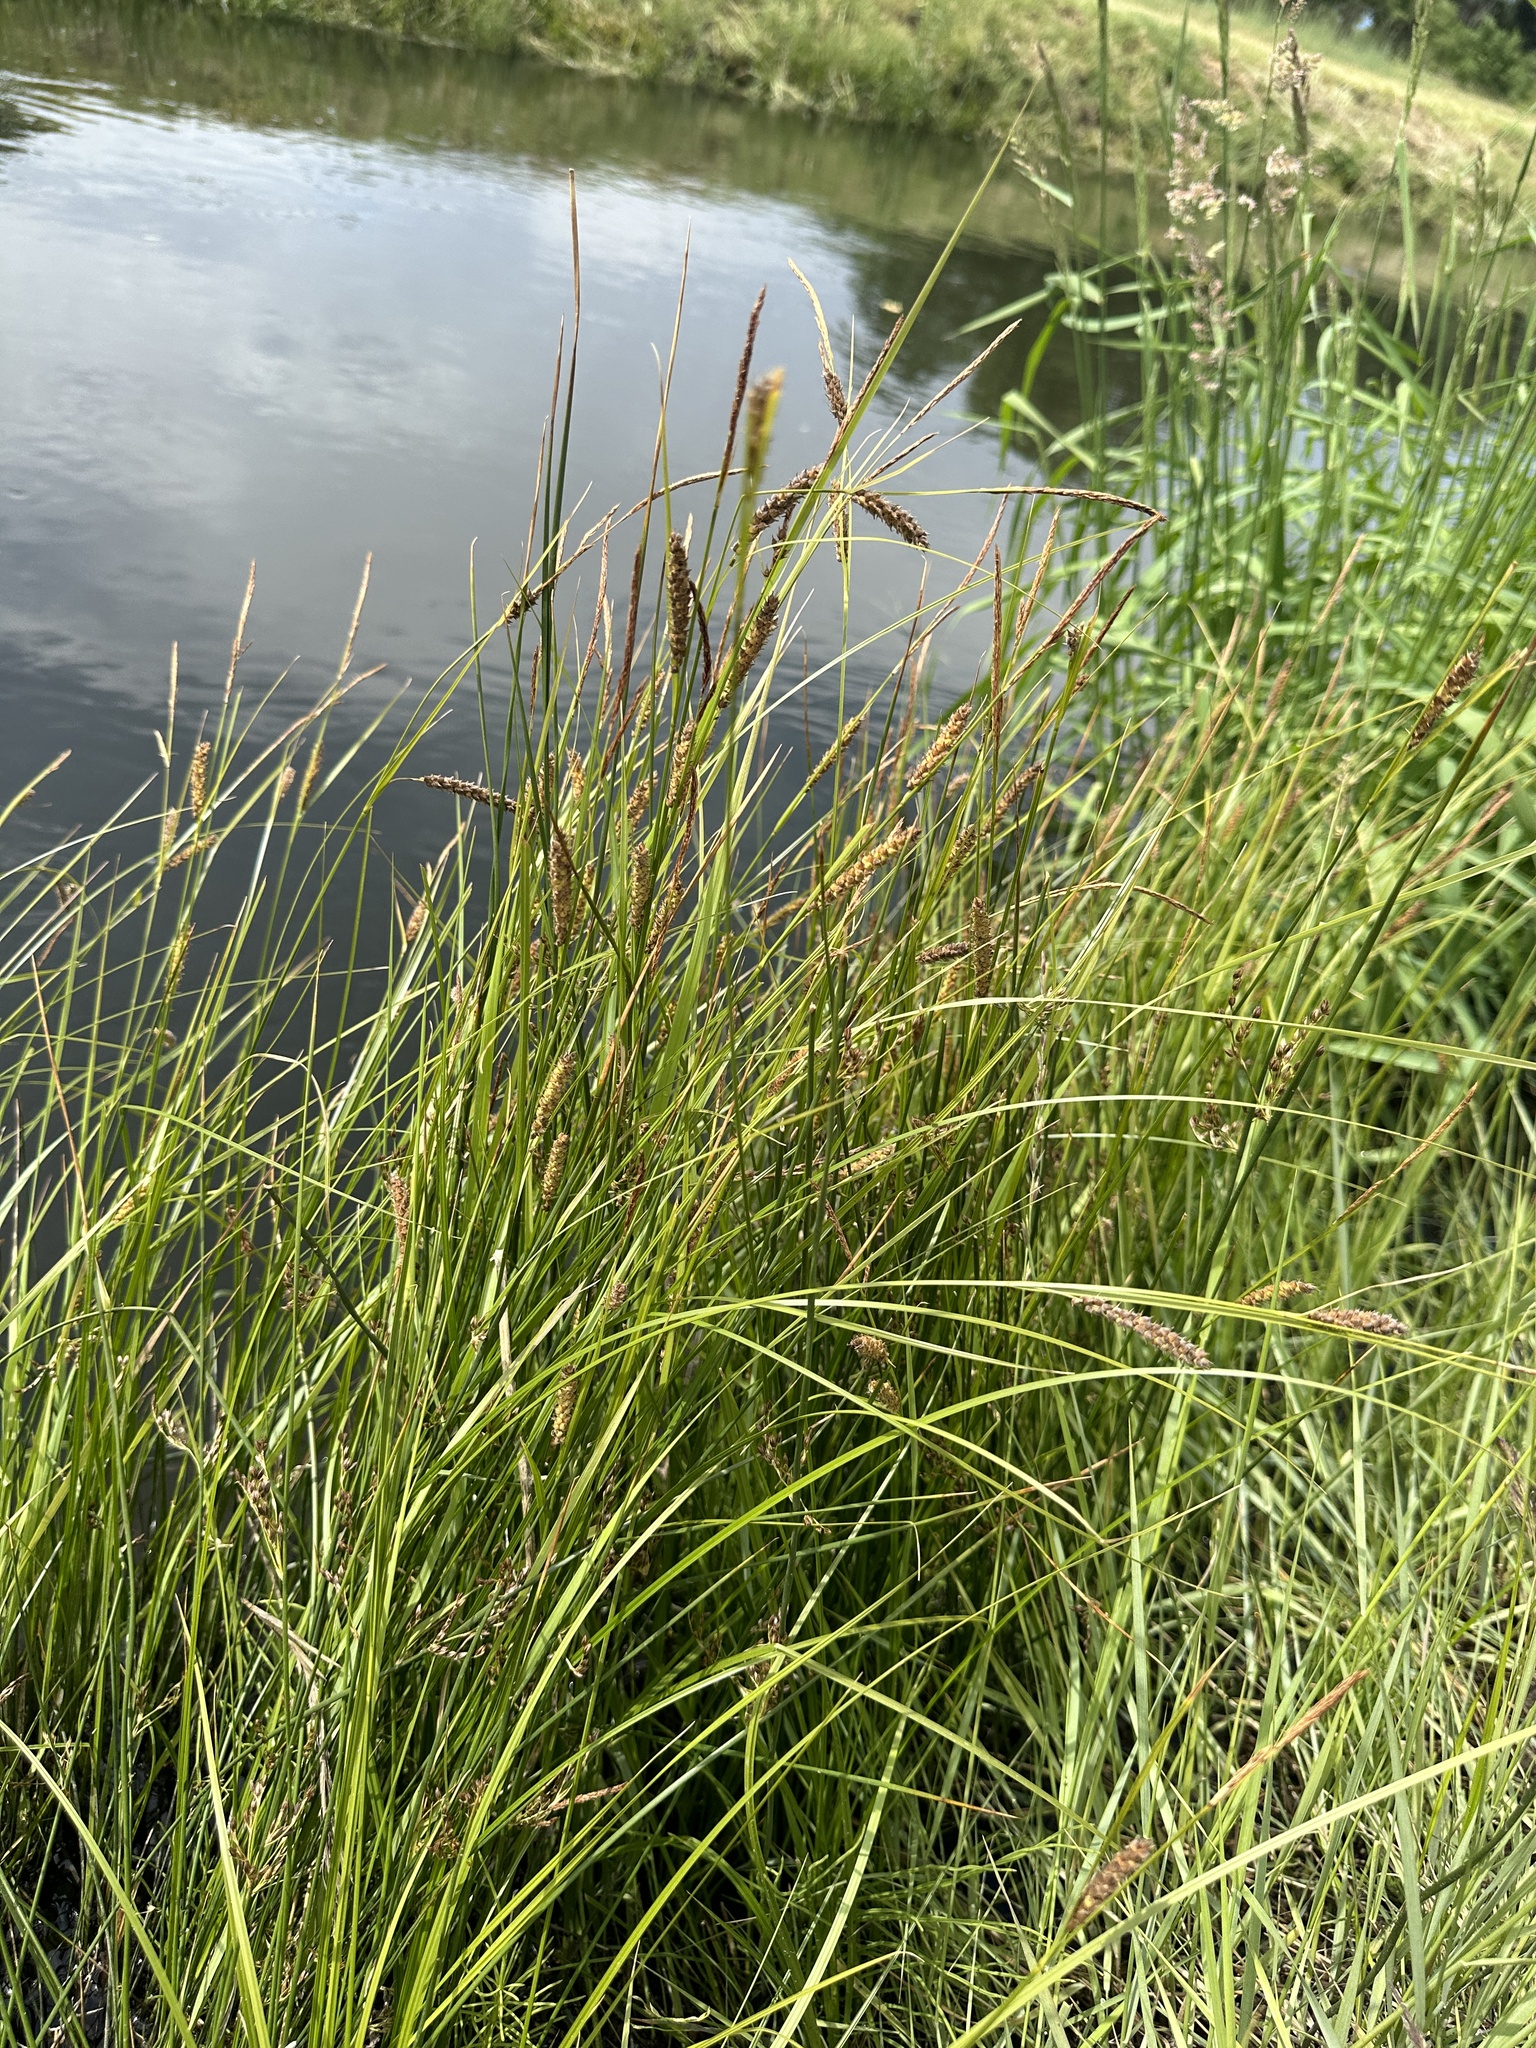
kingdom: Plantae
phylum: Tracheophyta
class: Liliopsida
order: Poales
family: Cyperaceae
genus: Carex
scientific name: Carex pellita
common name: Woolly sedge
